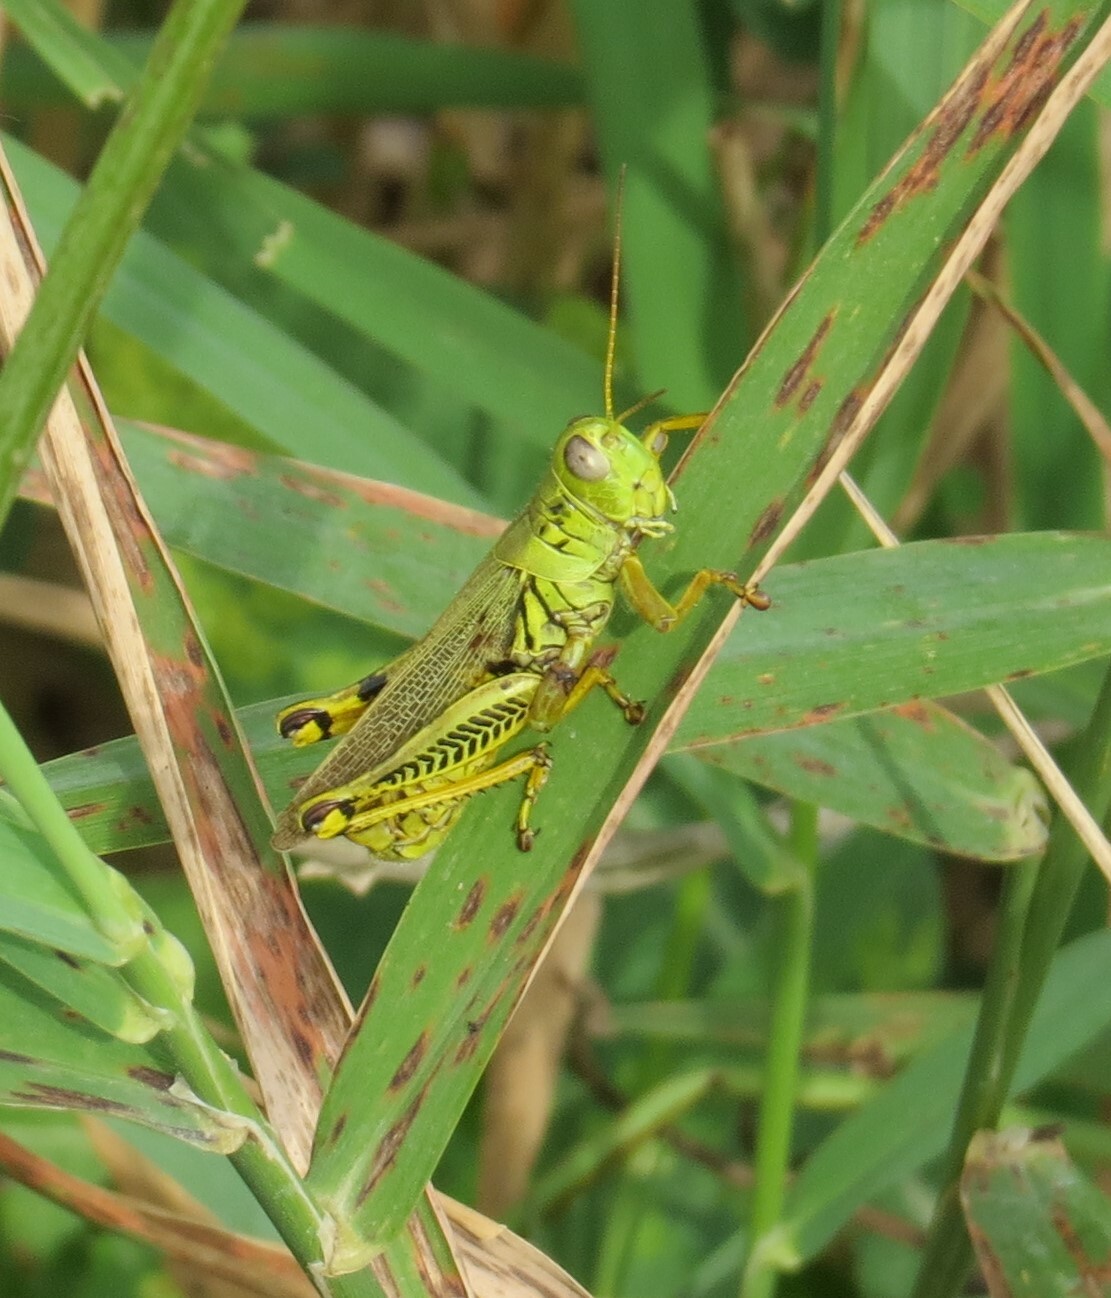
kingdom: Animalia
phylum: Arthropoda
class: Insecta
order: Orthoptera
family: Acrididae
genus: Melanoplus
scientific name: Melanoplus differentialis
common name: Differential grasshopper
